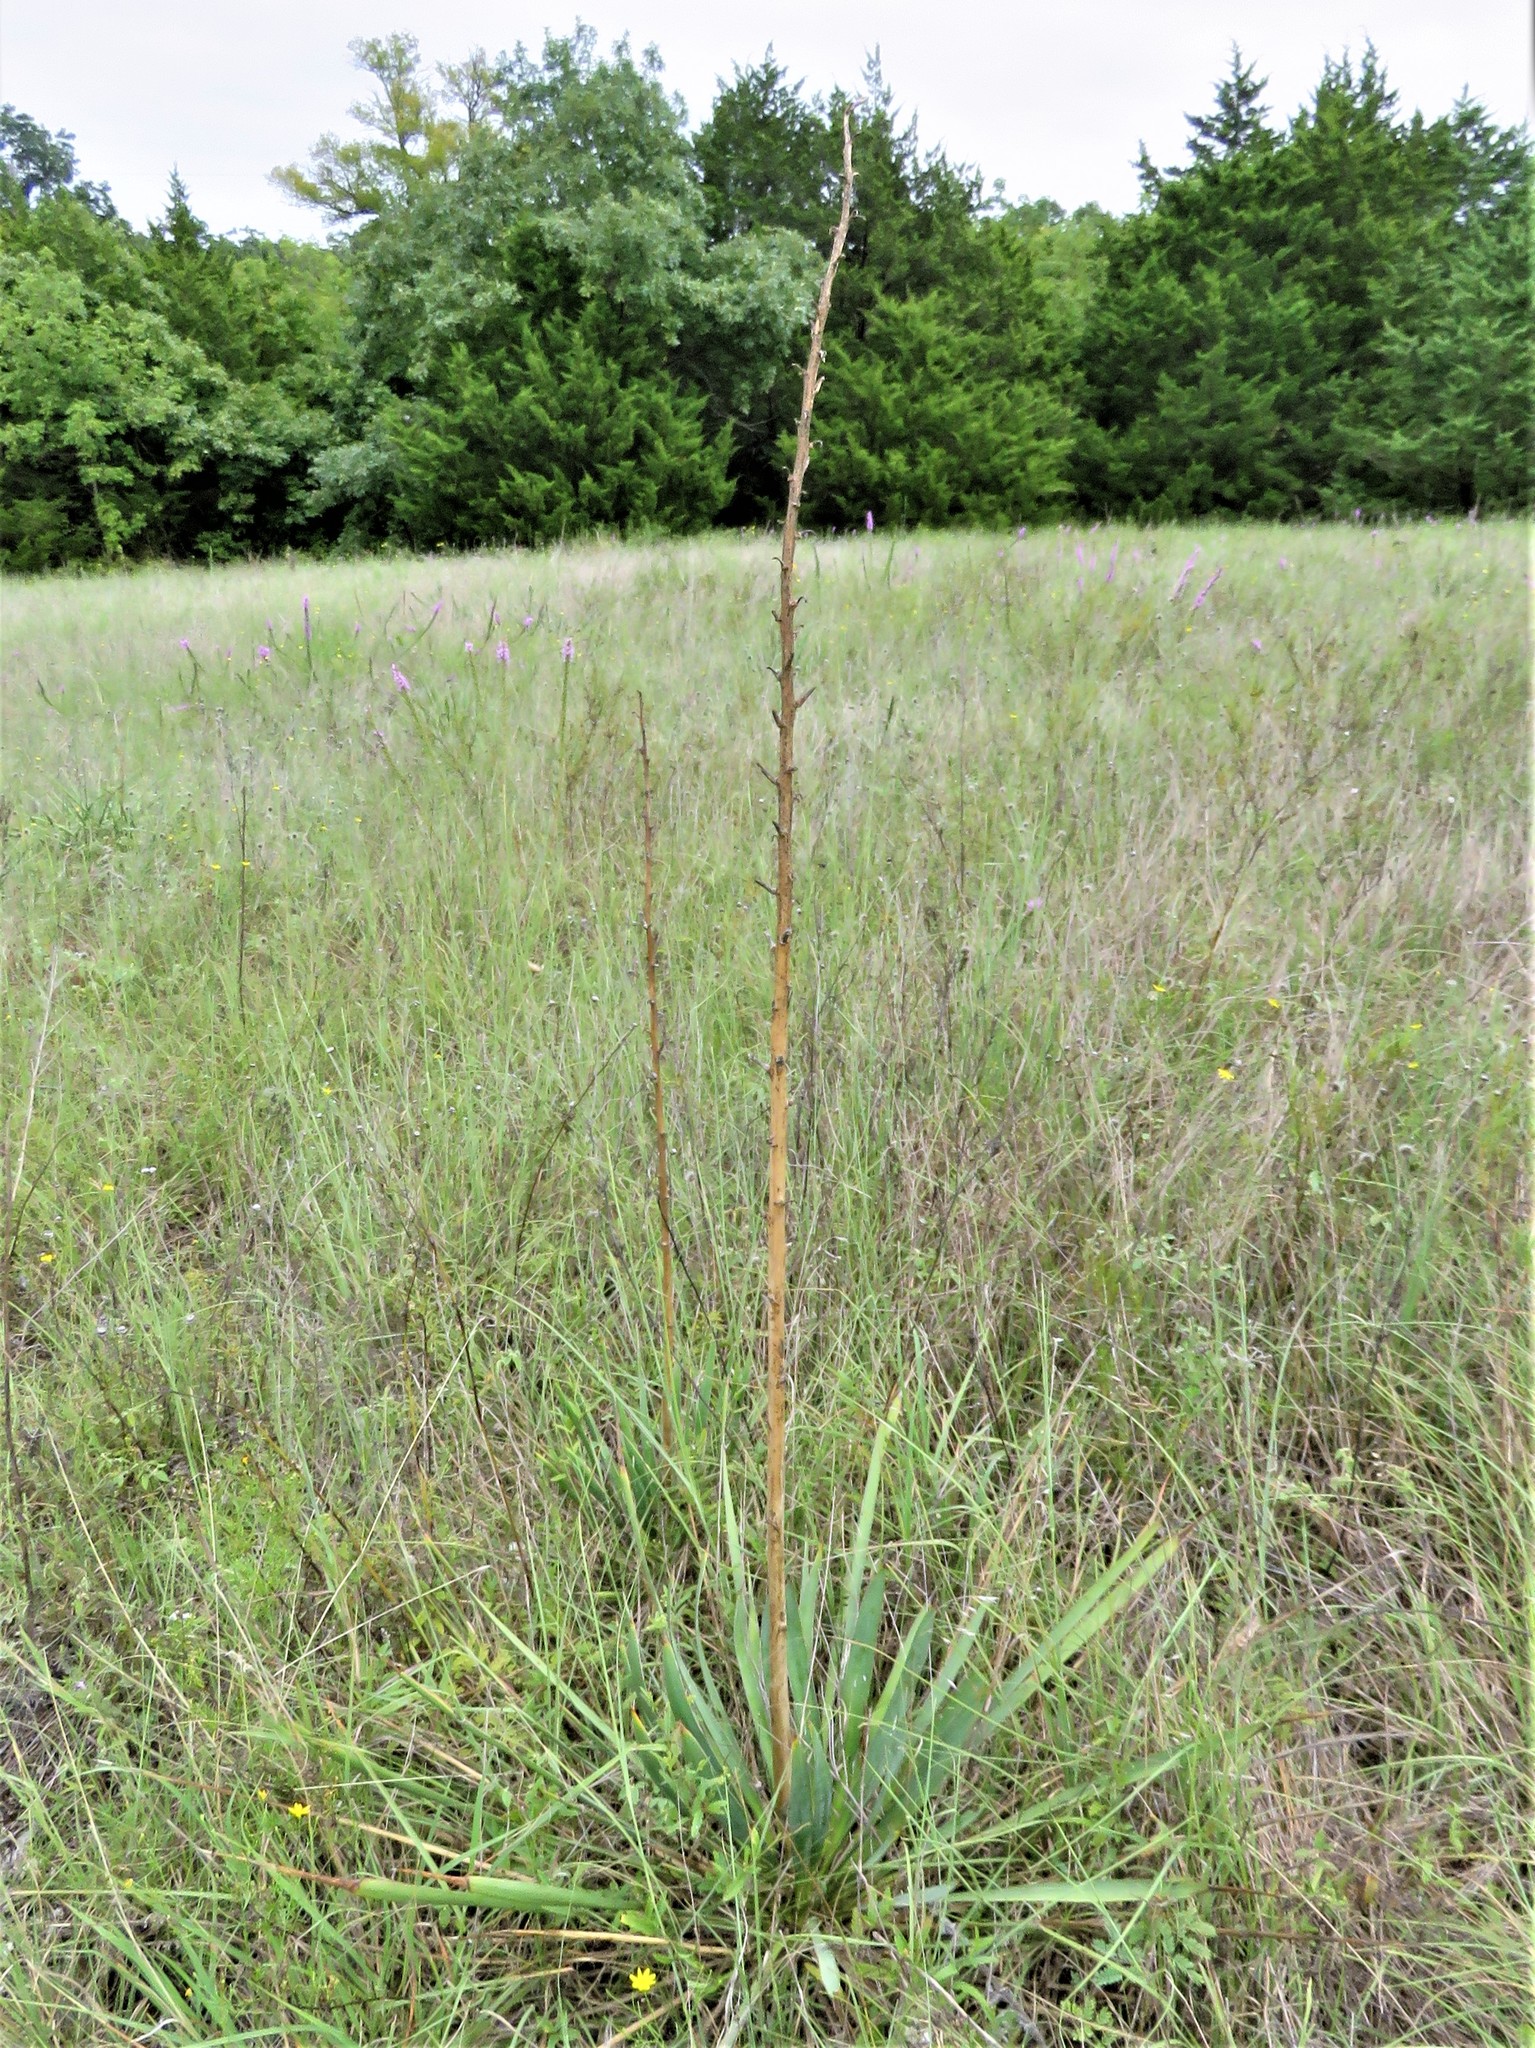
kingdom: Plantae
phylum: Tracheophyta
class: Liliopsida
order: Asparagales
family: Asparagaceae
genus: Yucca
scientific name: Yucca arkansana
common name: Arkansas yucca
